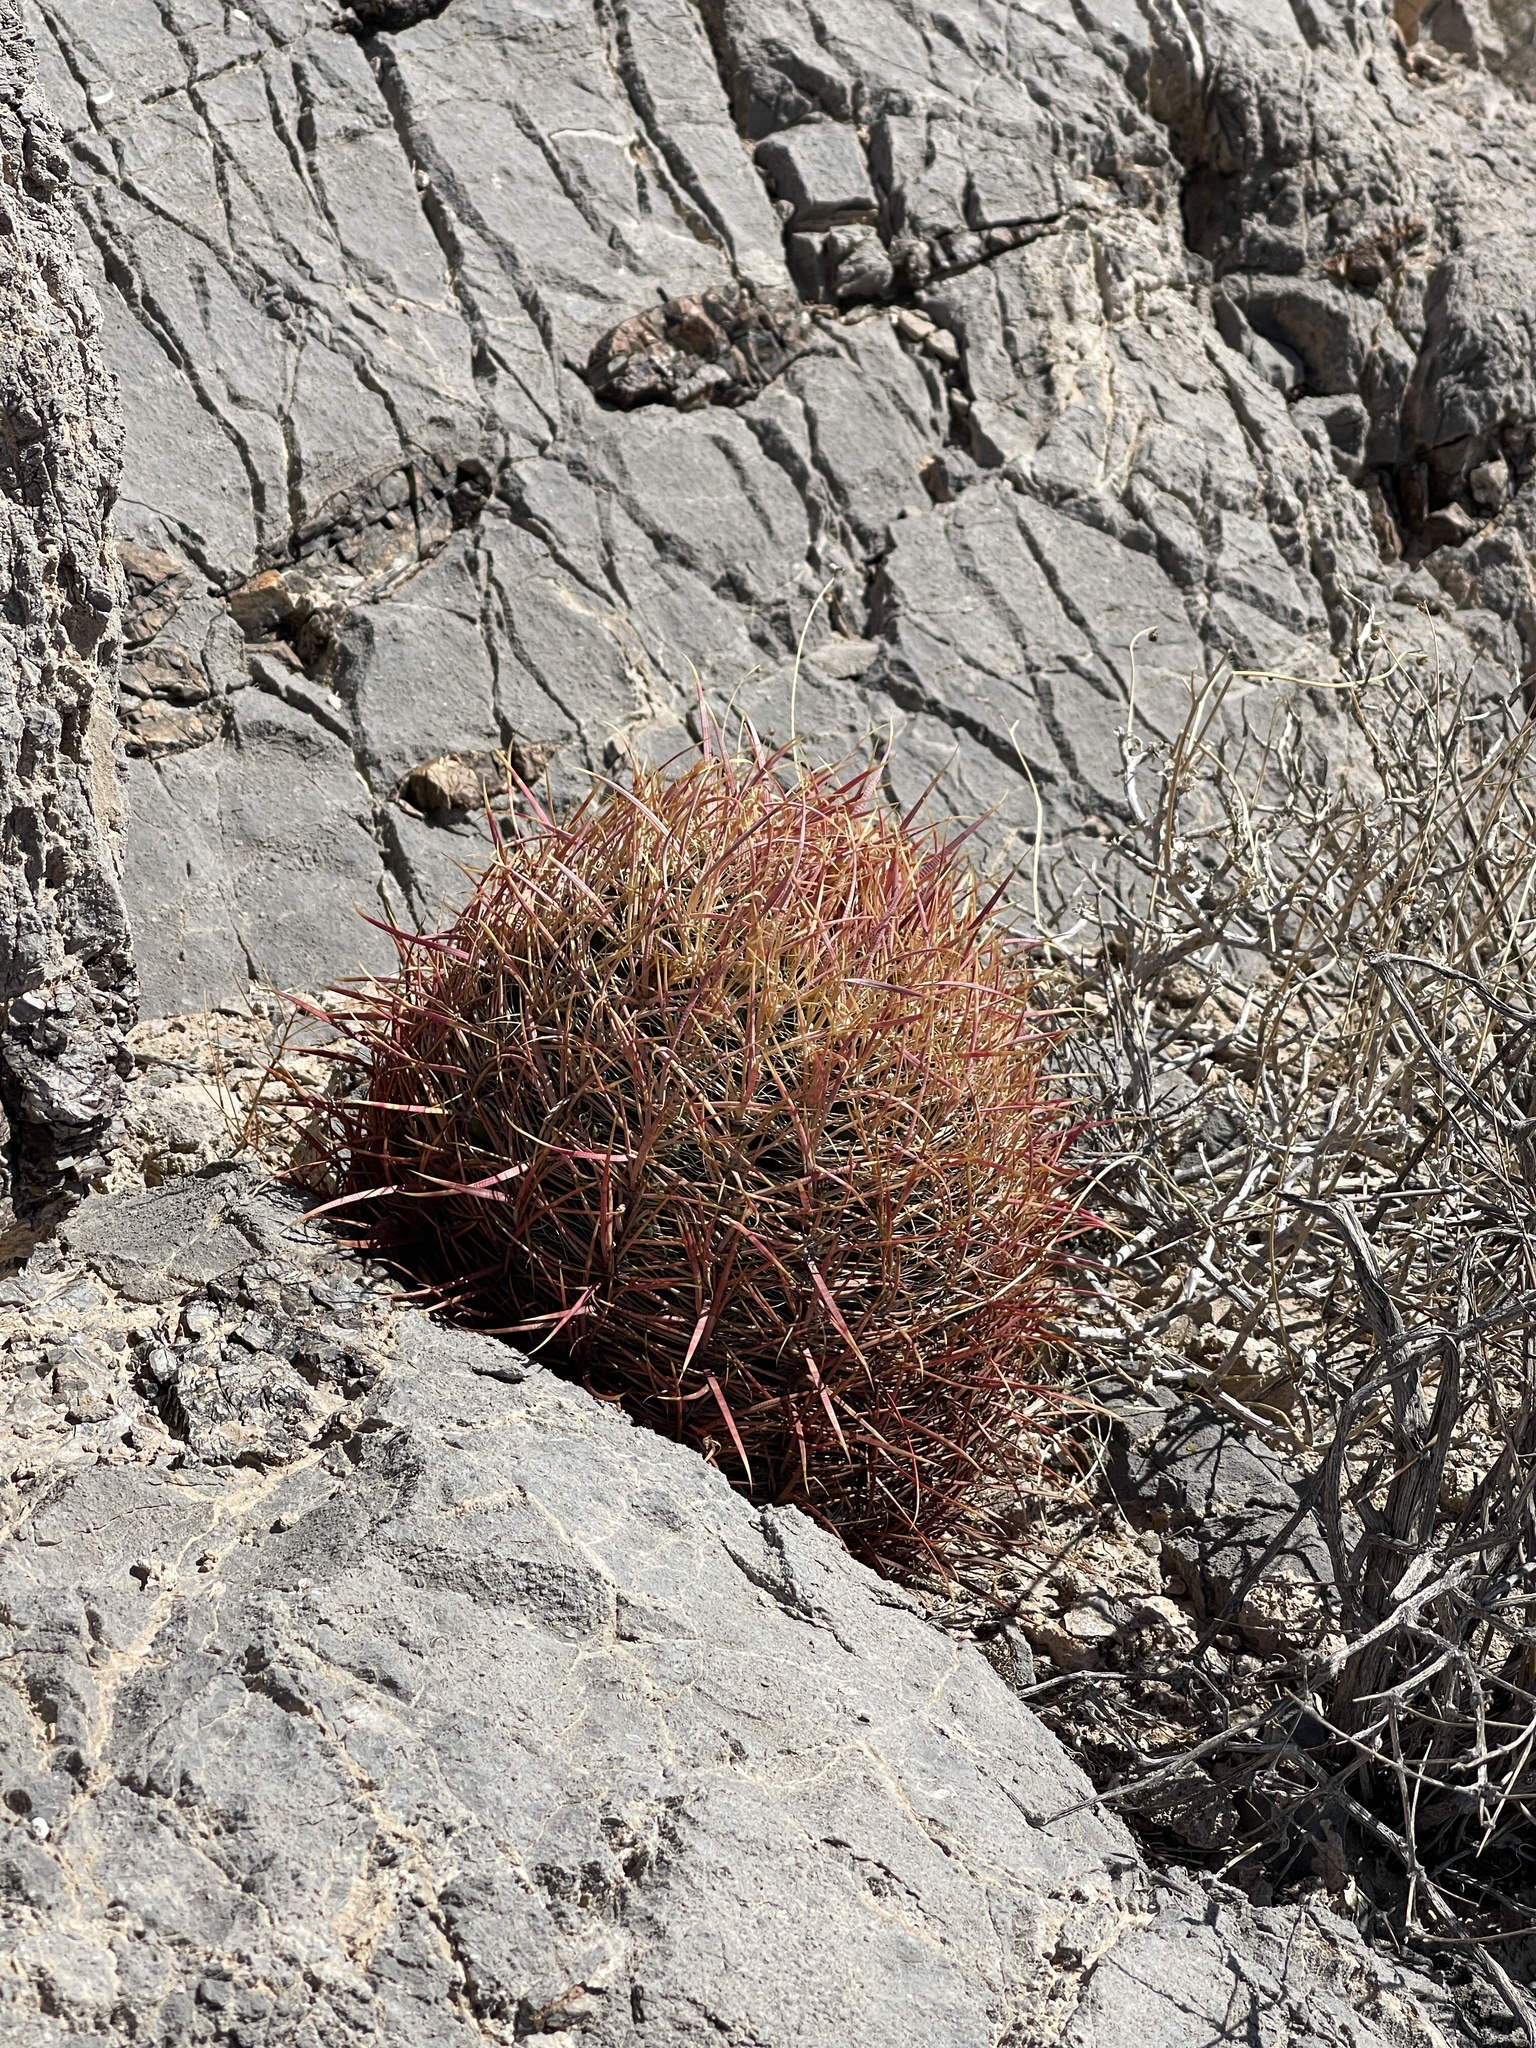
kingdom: Plantae
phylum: Tracheophyta
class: Magnoliopsida
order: Caryophyllales
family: Cactaceae
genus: Ferocactus
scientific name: Ferocactus cylindraceus
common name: California barrel cactus
